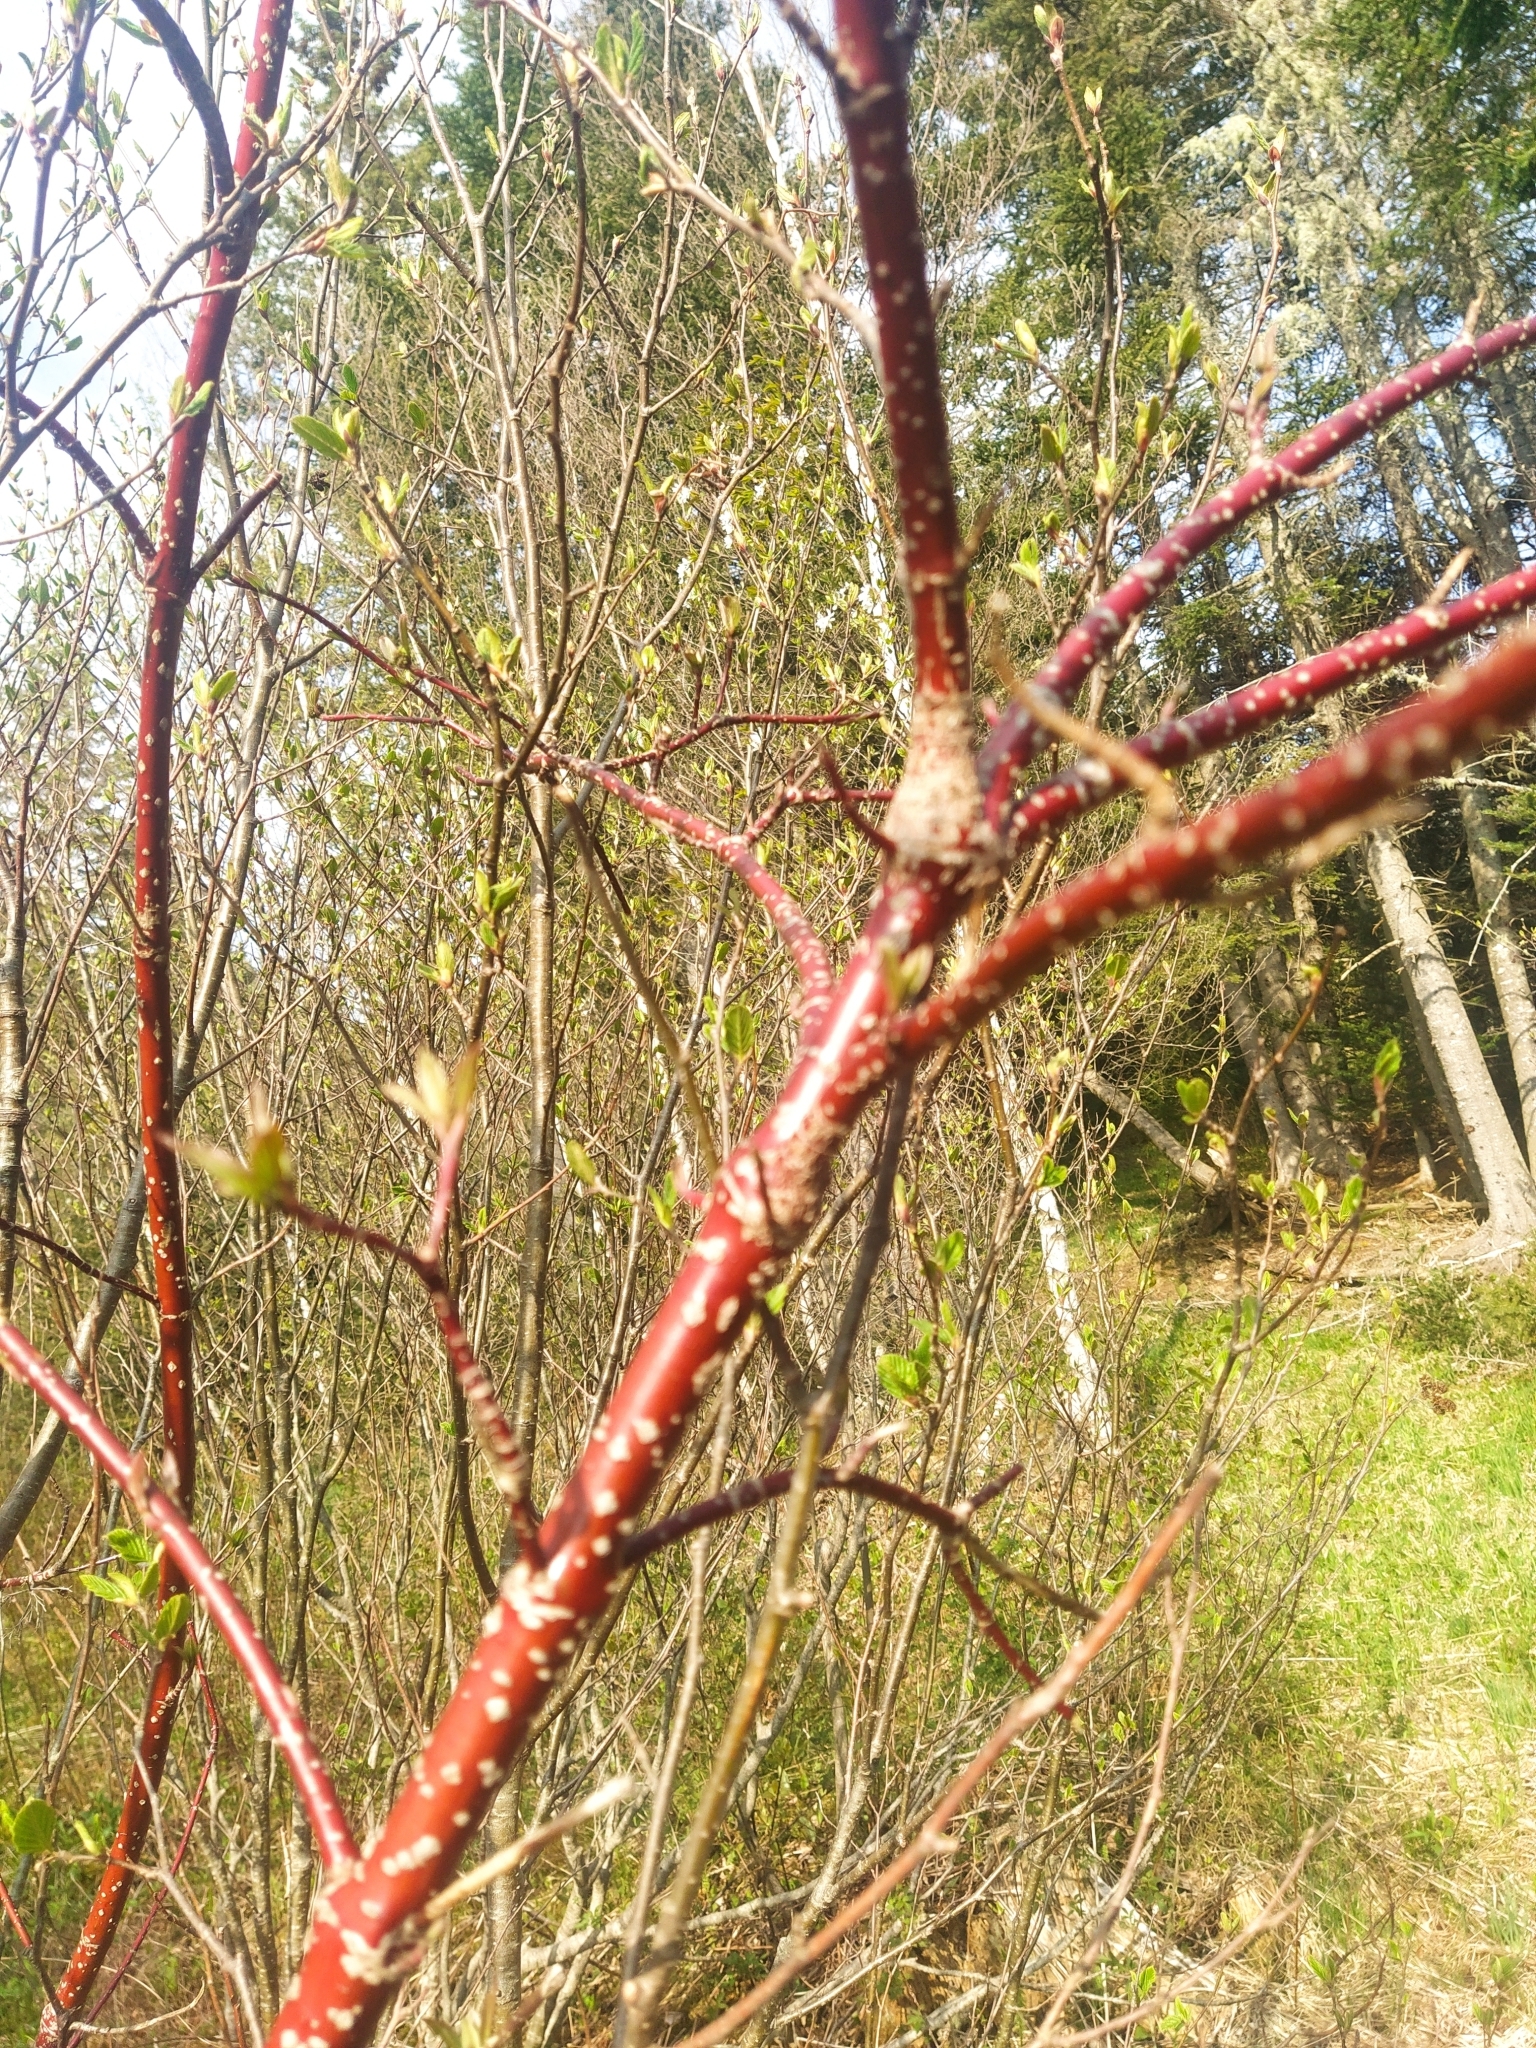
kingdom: Plantae
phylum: Tracheophyta
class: Magnoliopsida
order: Cornales
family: Cornaceae
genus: Cornus
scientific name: Cornus sericea
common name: Red-osier dogwood
